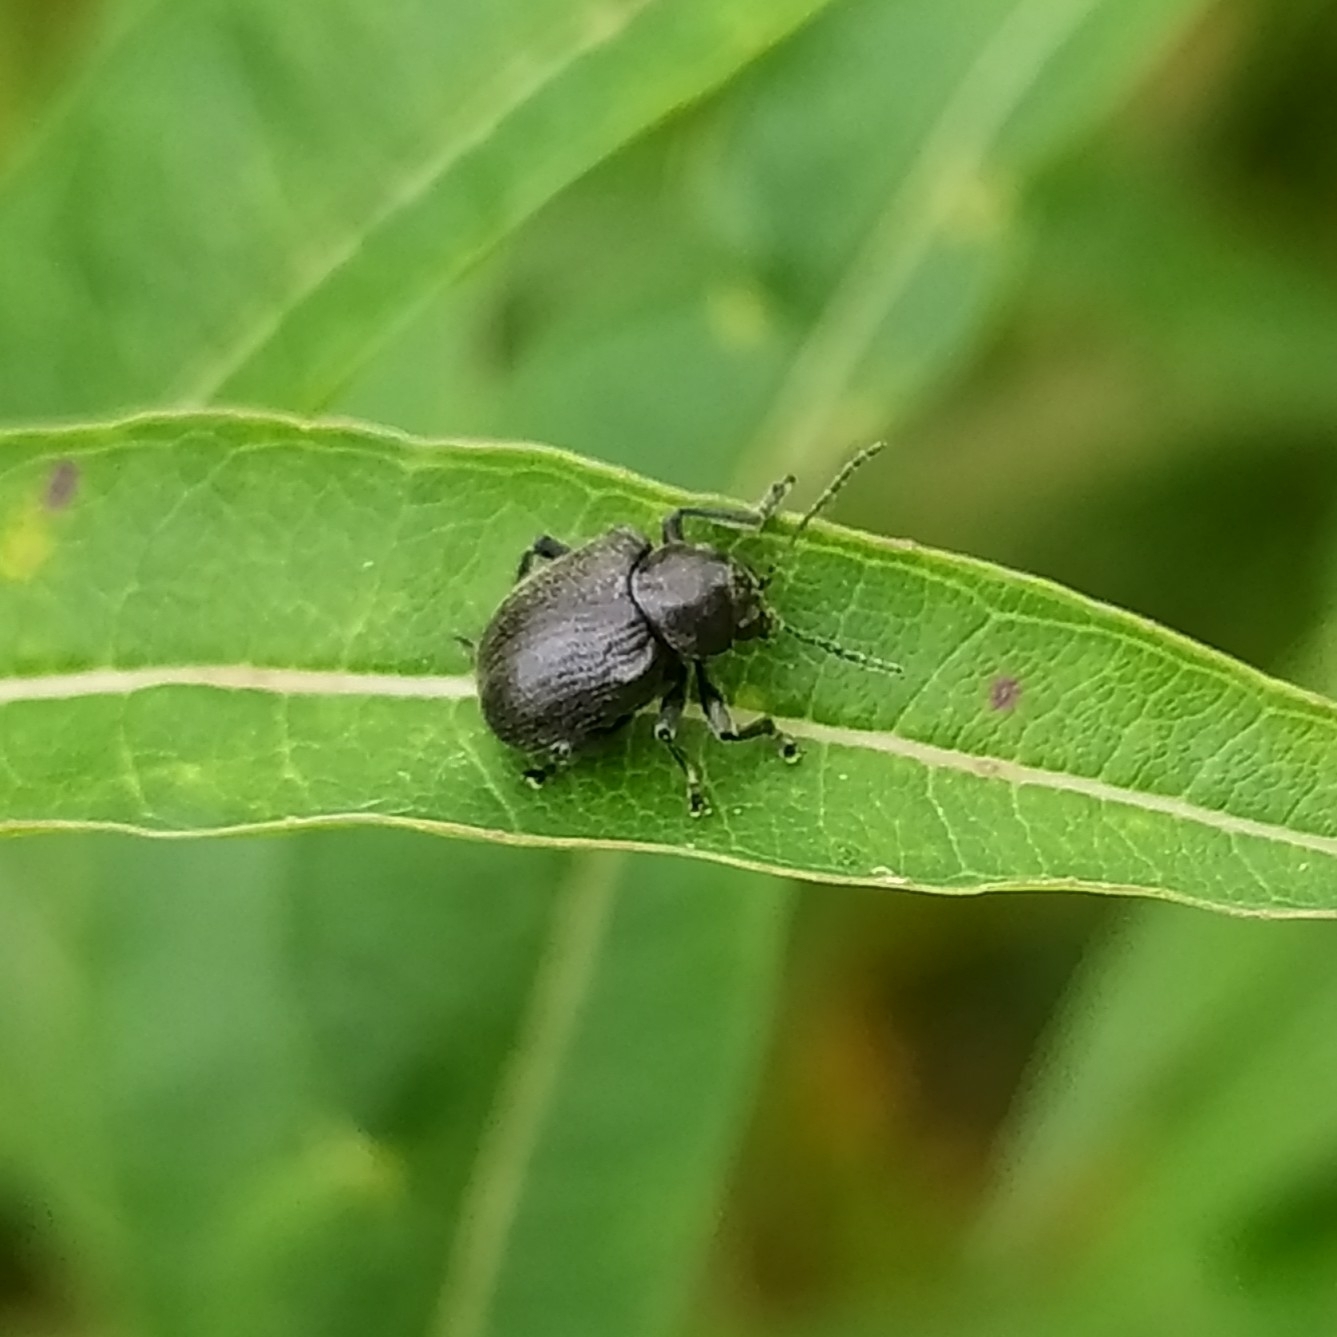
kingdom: Animalia
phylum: Arthropoda
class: Insecta
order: Coleoptera
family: Chrysomelidae
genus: Bromius
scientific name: Bromius obscurus
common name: Western grape rootworm
